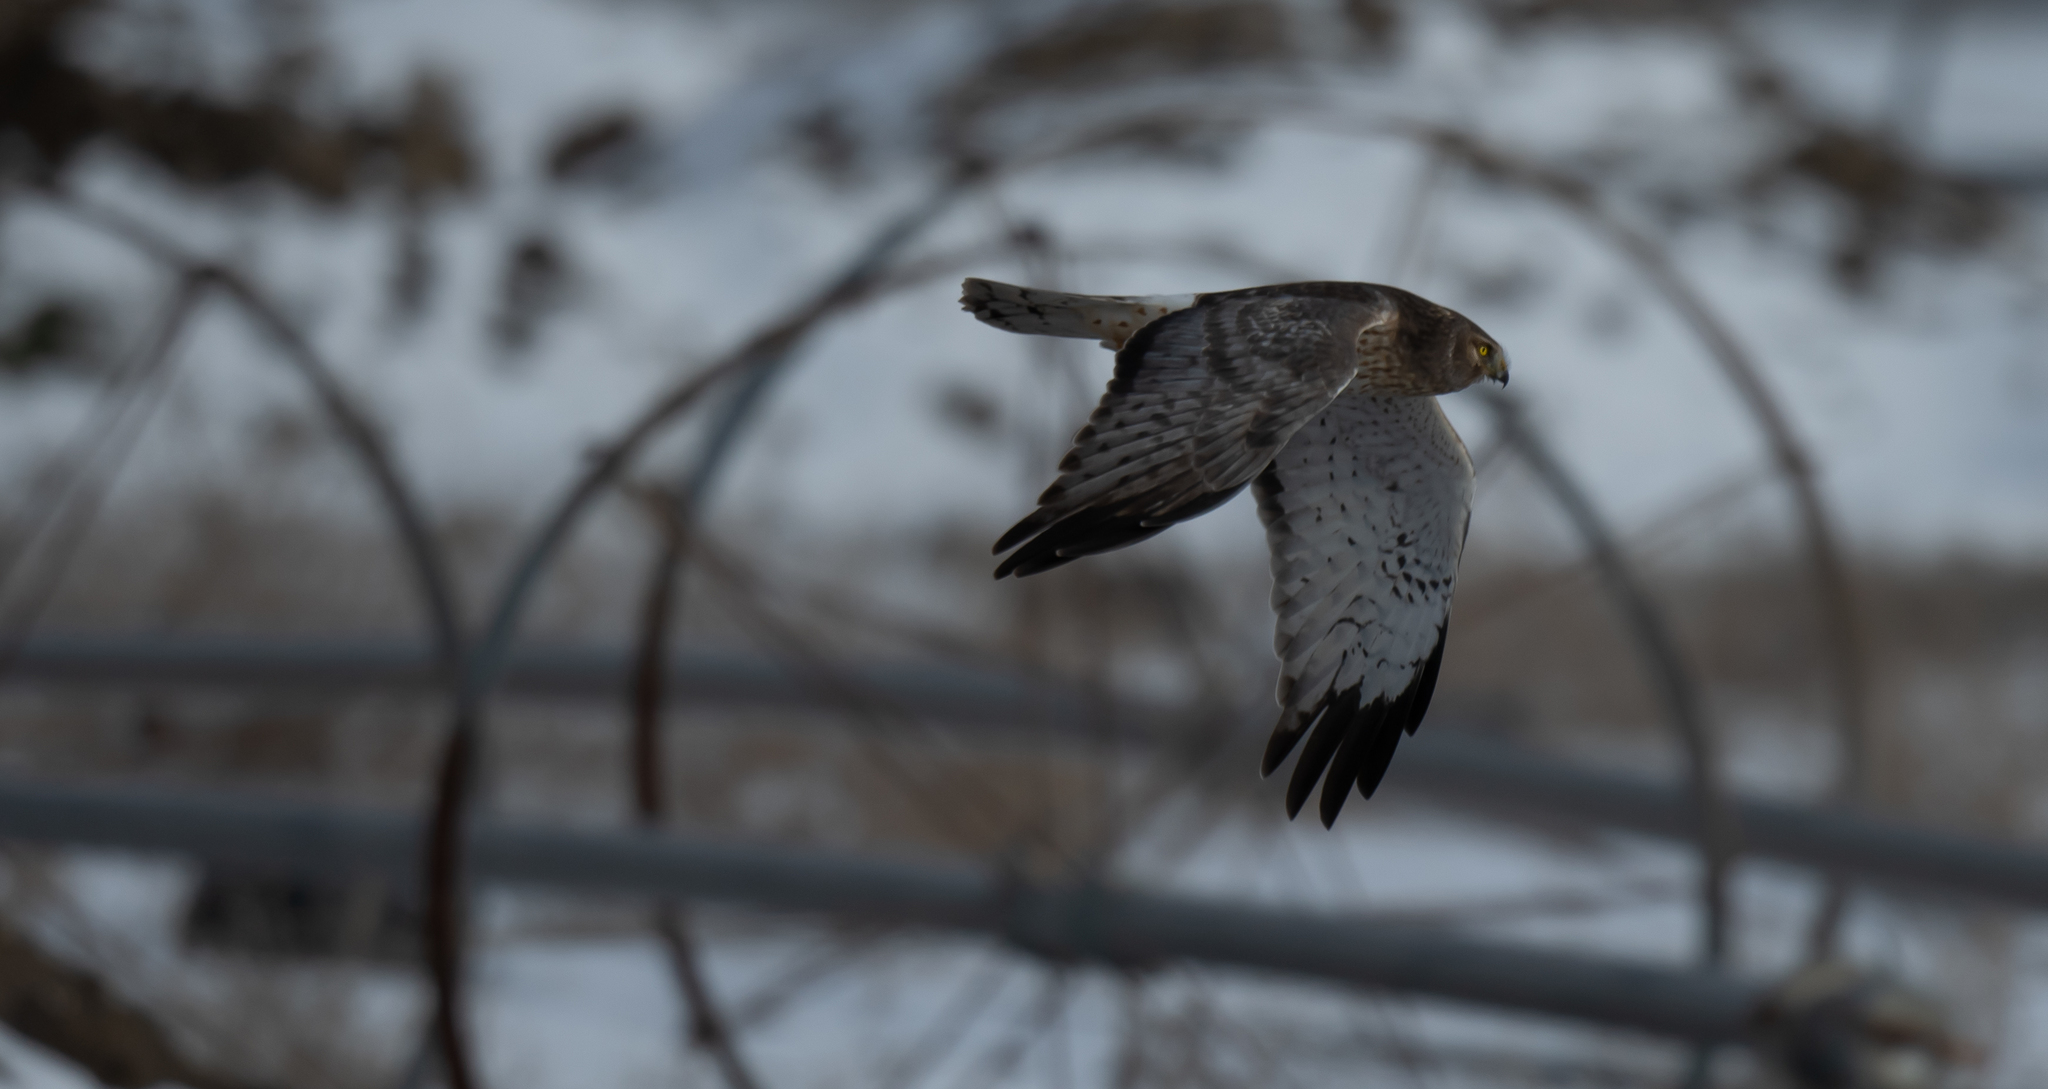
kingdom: Animalia
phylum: Chordata
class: Aves
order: Accipitriformes
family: Accipitridae
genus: Circus
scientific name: Circus cyaneus
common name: Hen harrier
